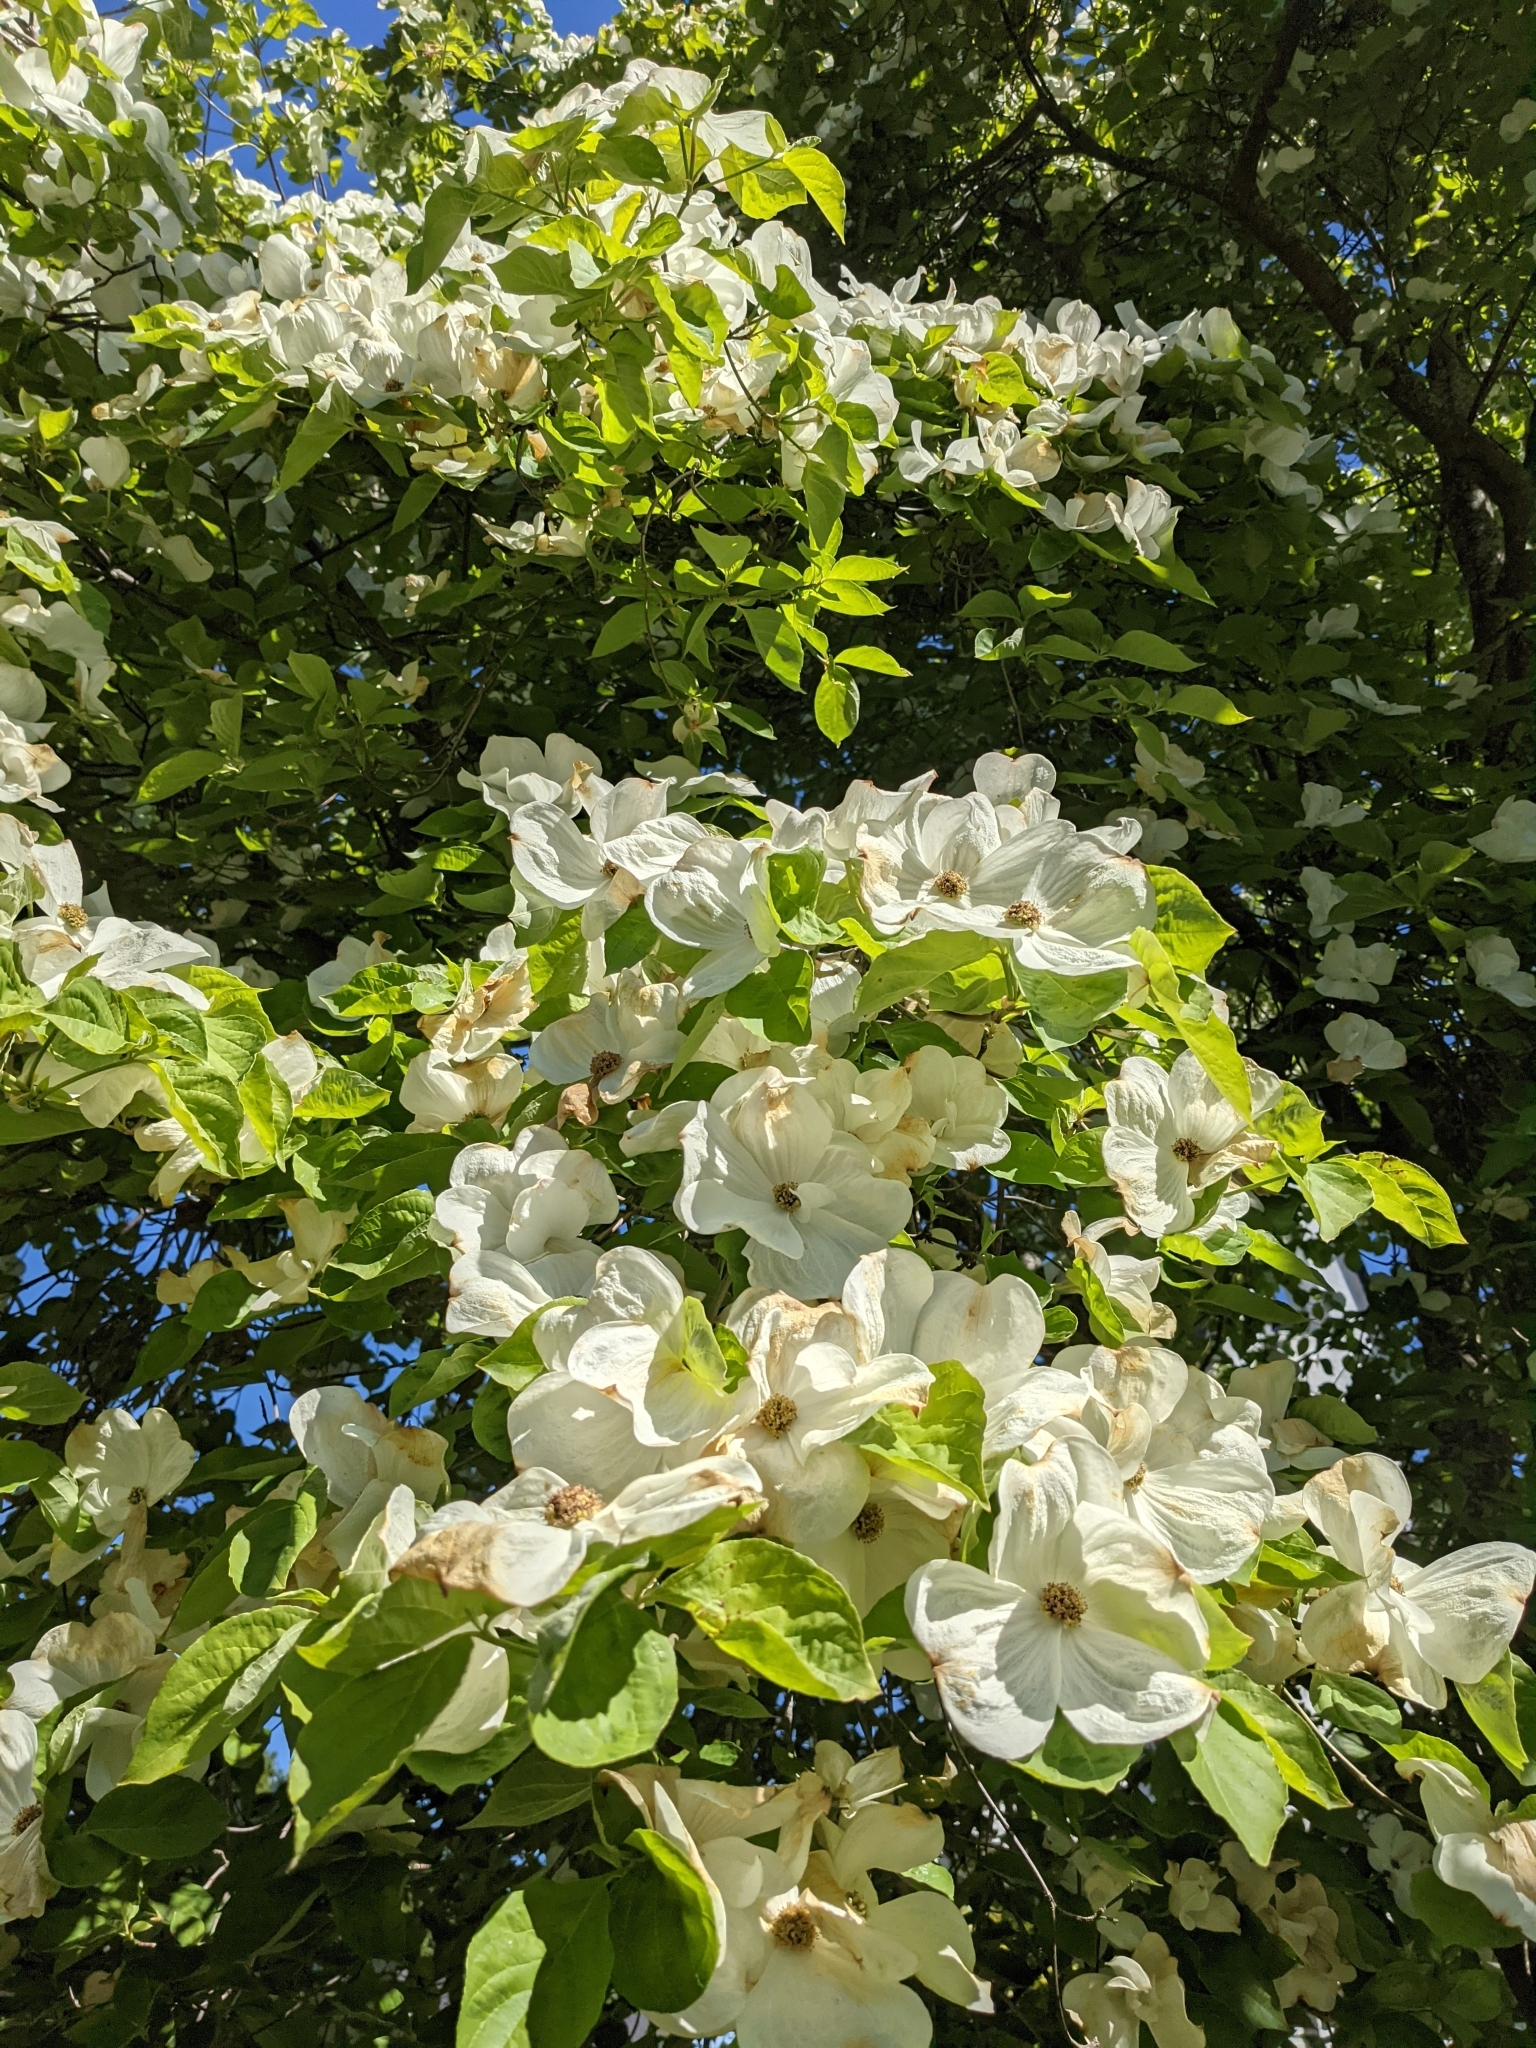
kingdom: Plantae
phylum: Tracheophyta
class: Magnoliopsida
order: Cornales
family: Cornaceae
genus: Cornus
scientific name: Cornus nuttallii
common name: Pacific dogwood
